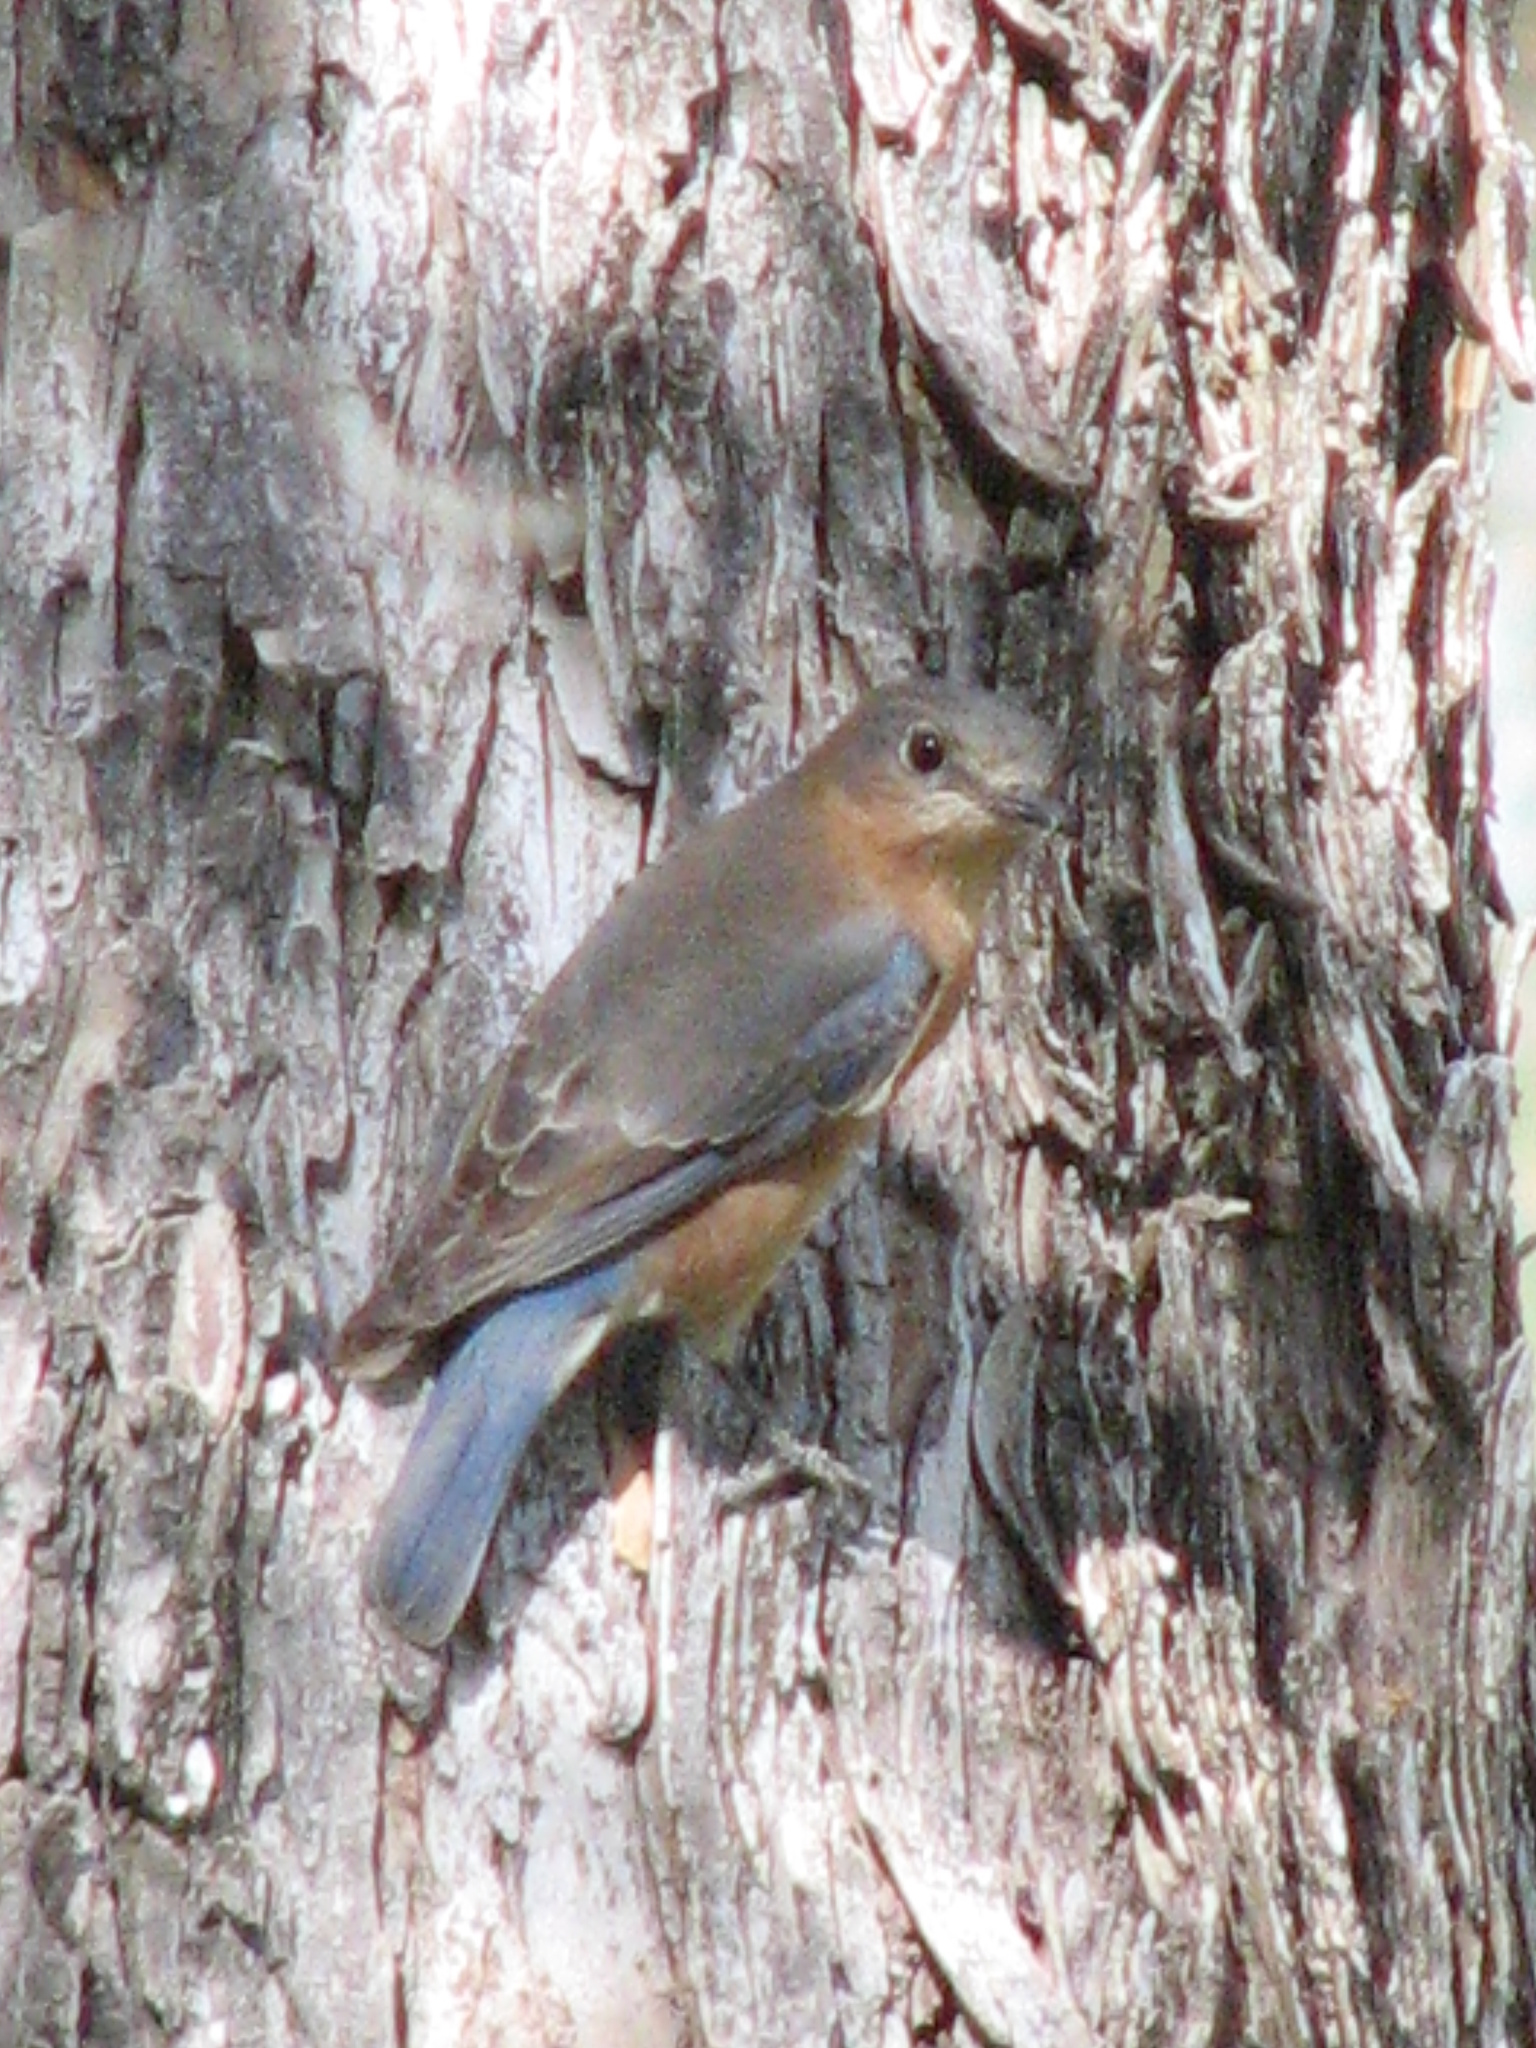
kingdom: Animalia
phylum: Chordata
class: Aves
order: Passeriformes
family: Turdidae
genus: Sialia
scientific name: Sialia sialis
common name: Eastern bluebird
